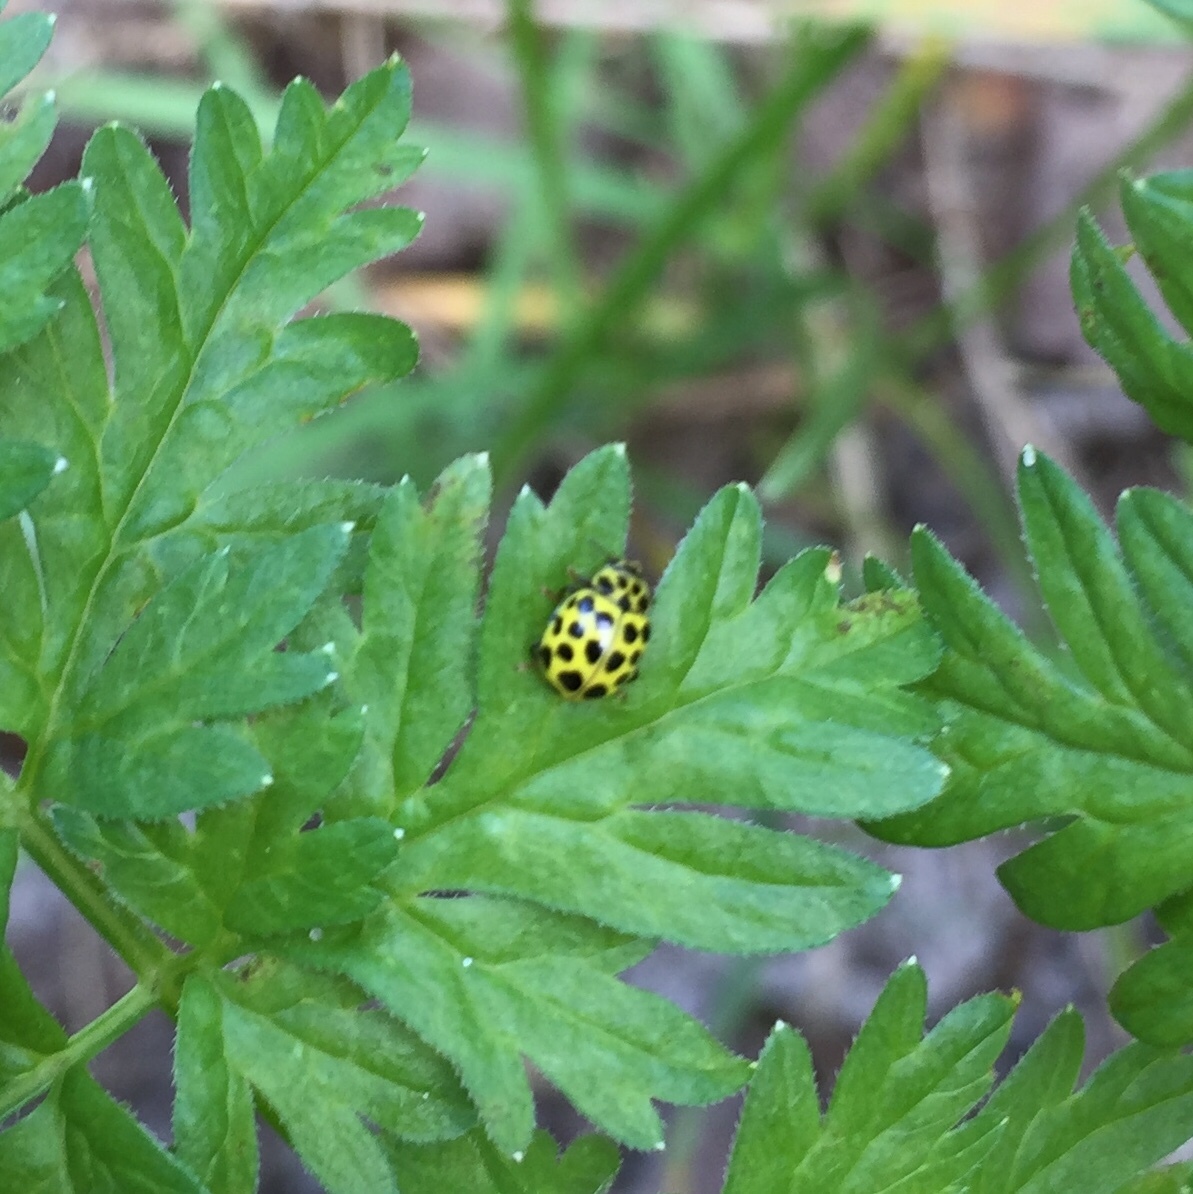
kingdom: Animalia
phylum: Arthropoda
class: Insecta
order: Coleoptera
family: Coccinellidae
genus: Psyllobora
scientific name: Psyllobora vigintiduopunctata
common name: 22-spot ladybird
